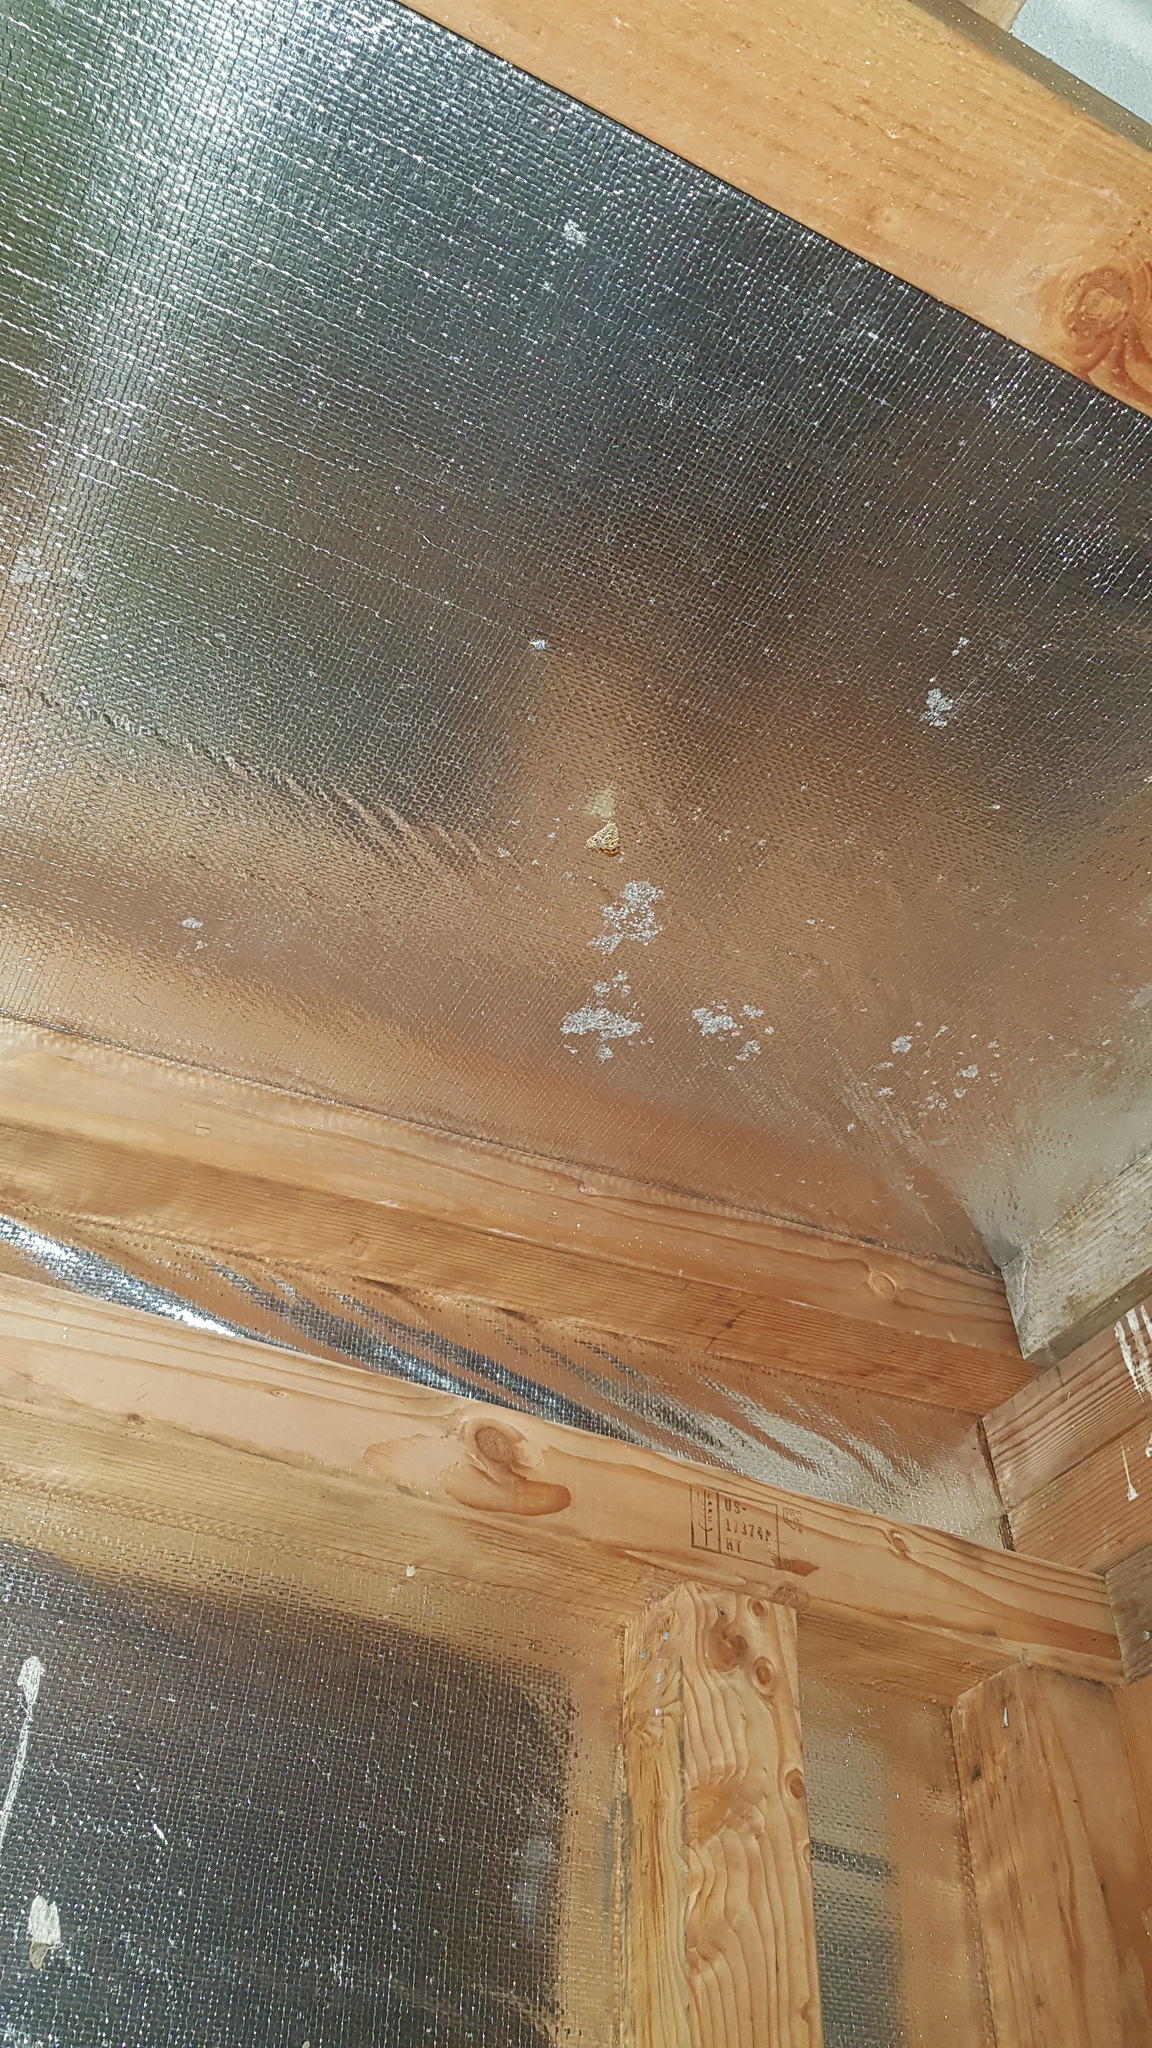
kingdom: Animalia
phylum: Arthropoda
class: Insecta
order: Lepidoptera
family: Nymphalidae
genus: Geitoneura
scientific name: Geitoneura acantha
